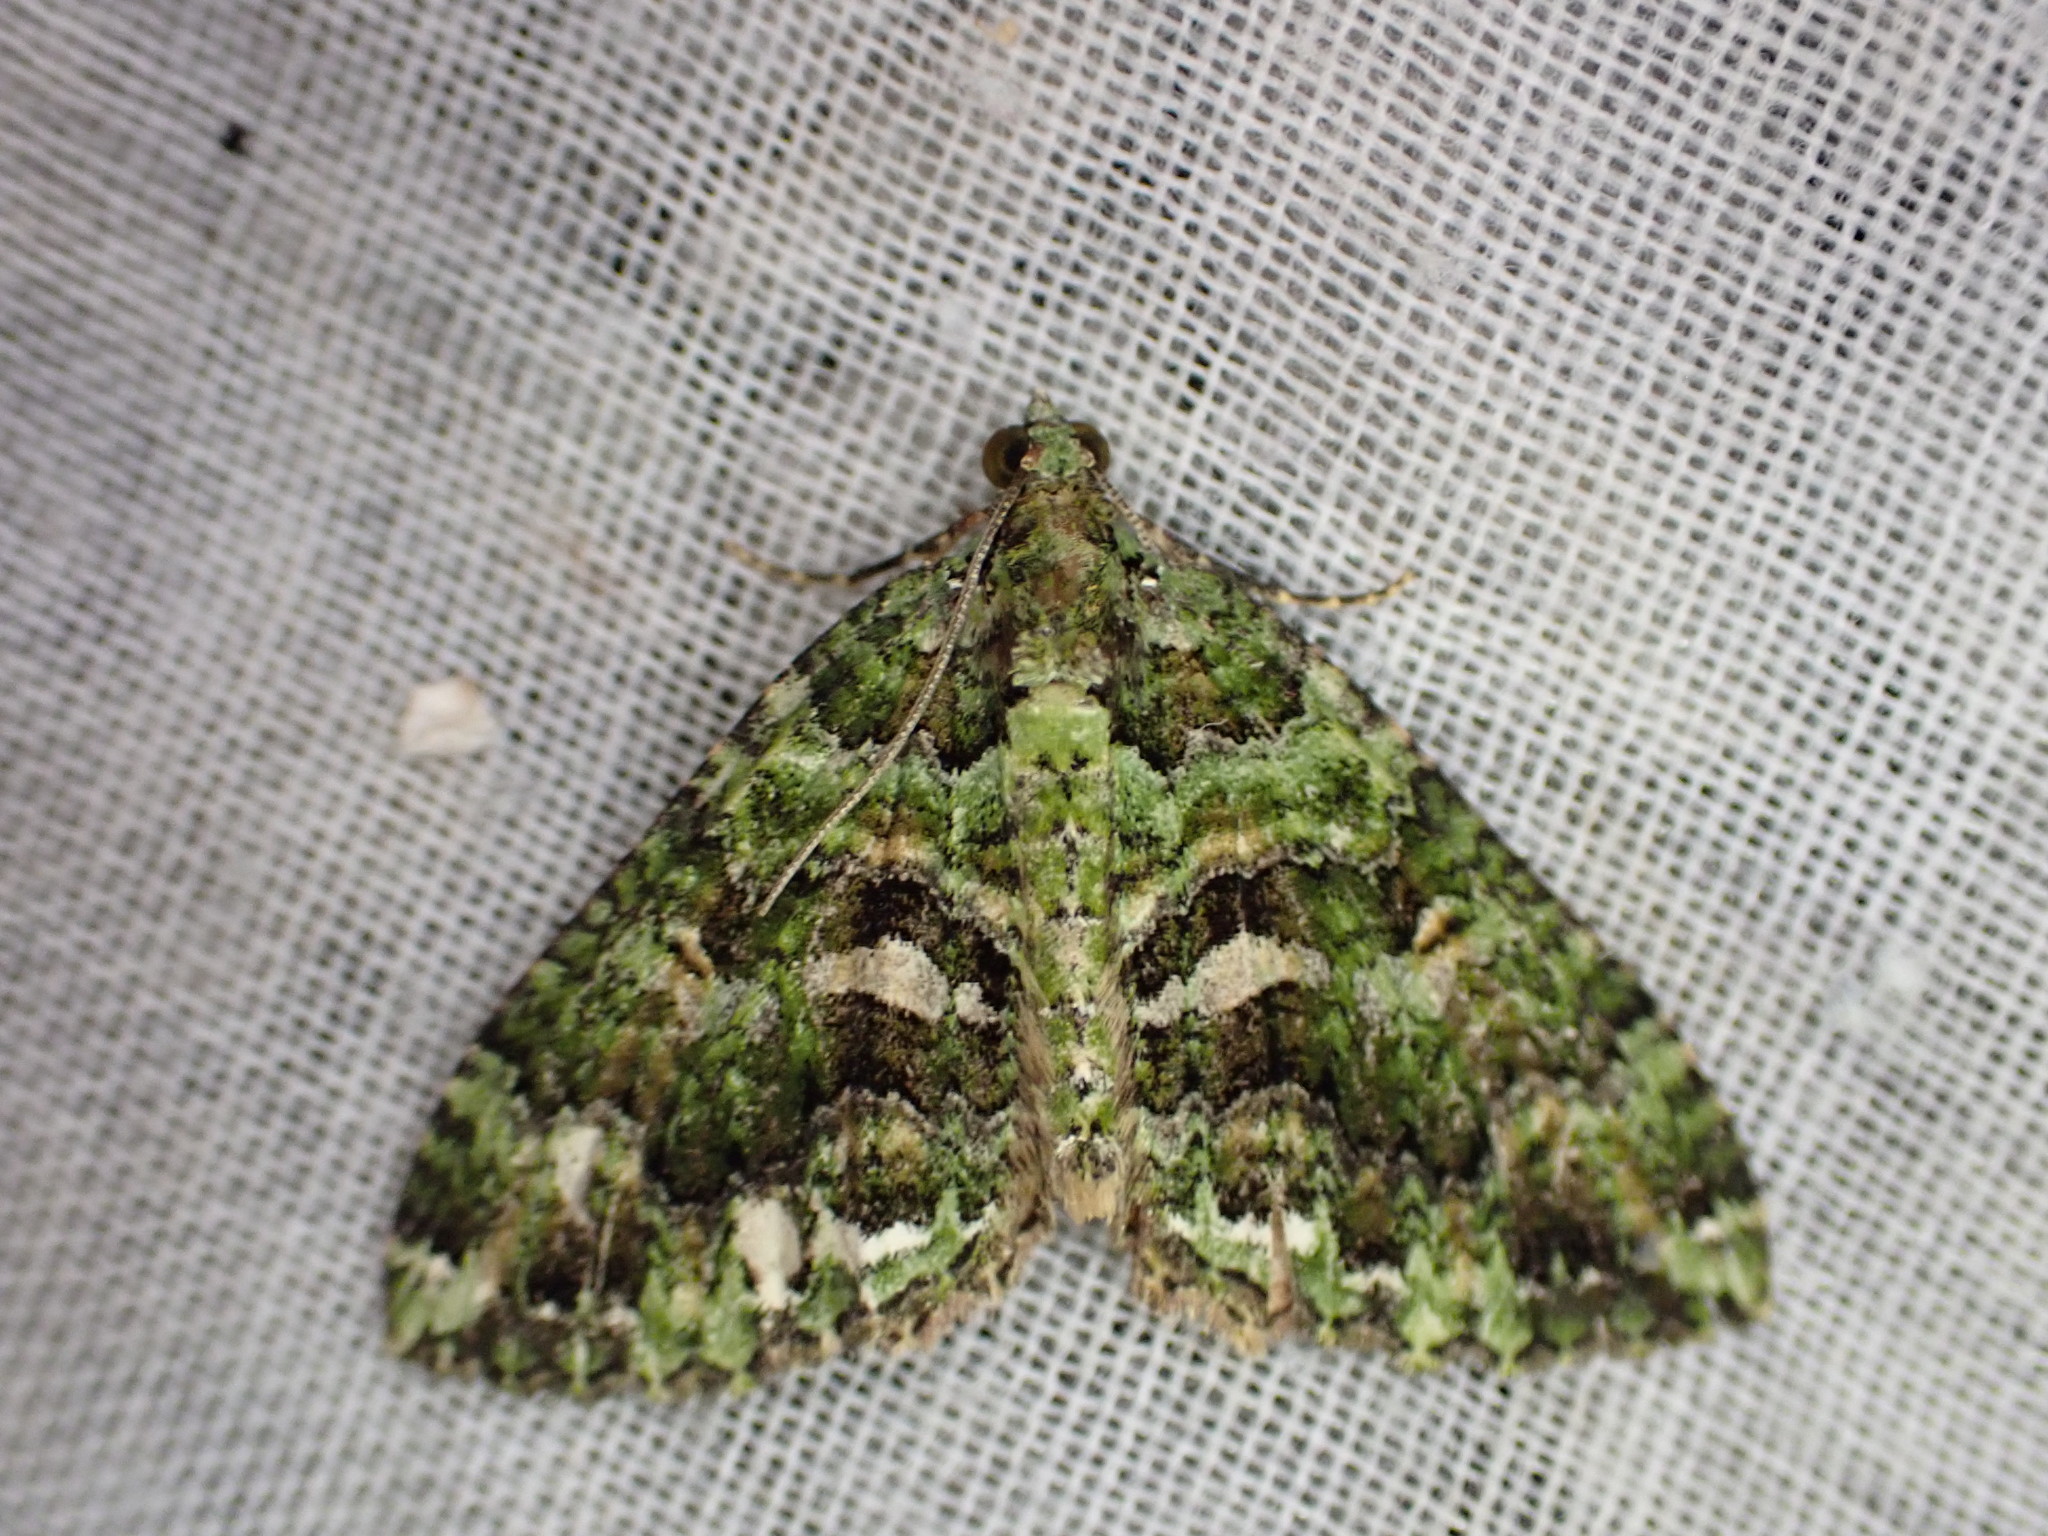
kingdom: Animalia
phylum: Arthropoda
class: Insecta
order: Lepidoptera
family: Geometridae
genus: Austrocidaria
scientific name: Austrocidaria similata
